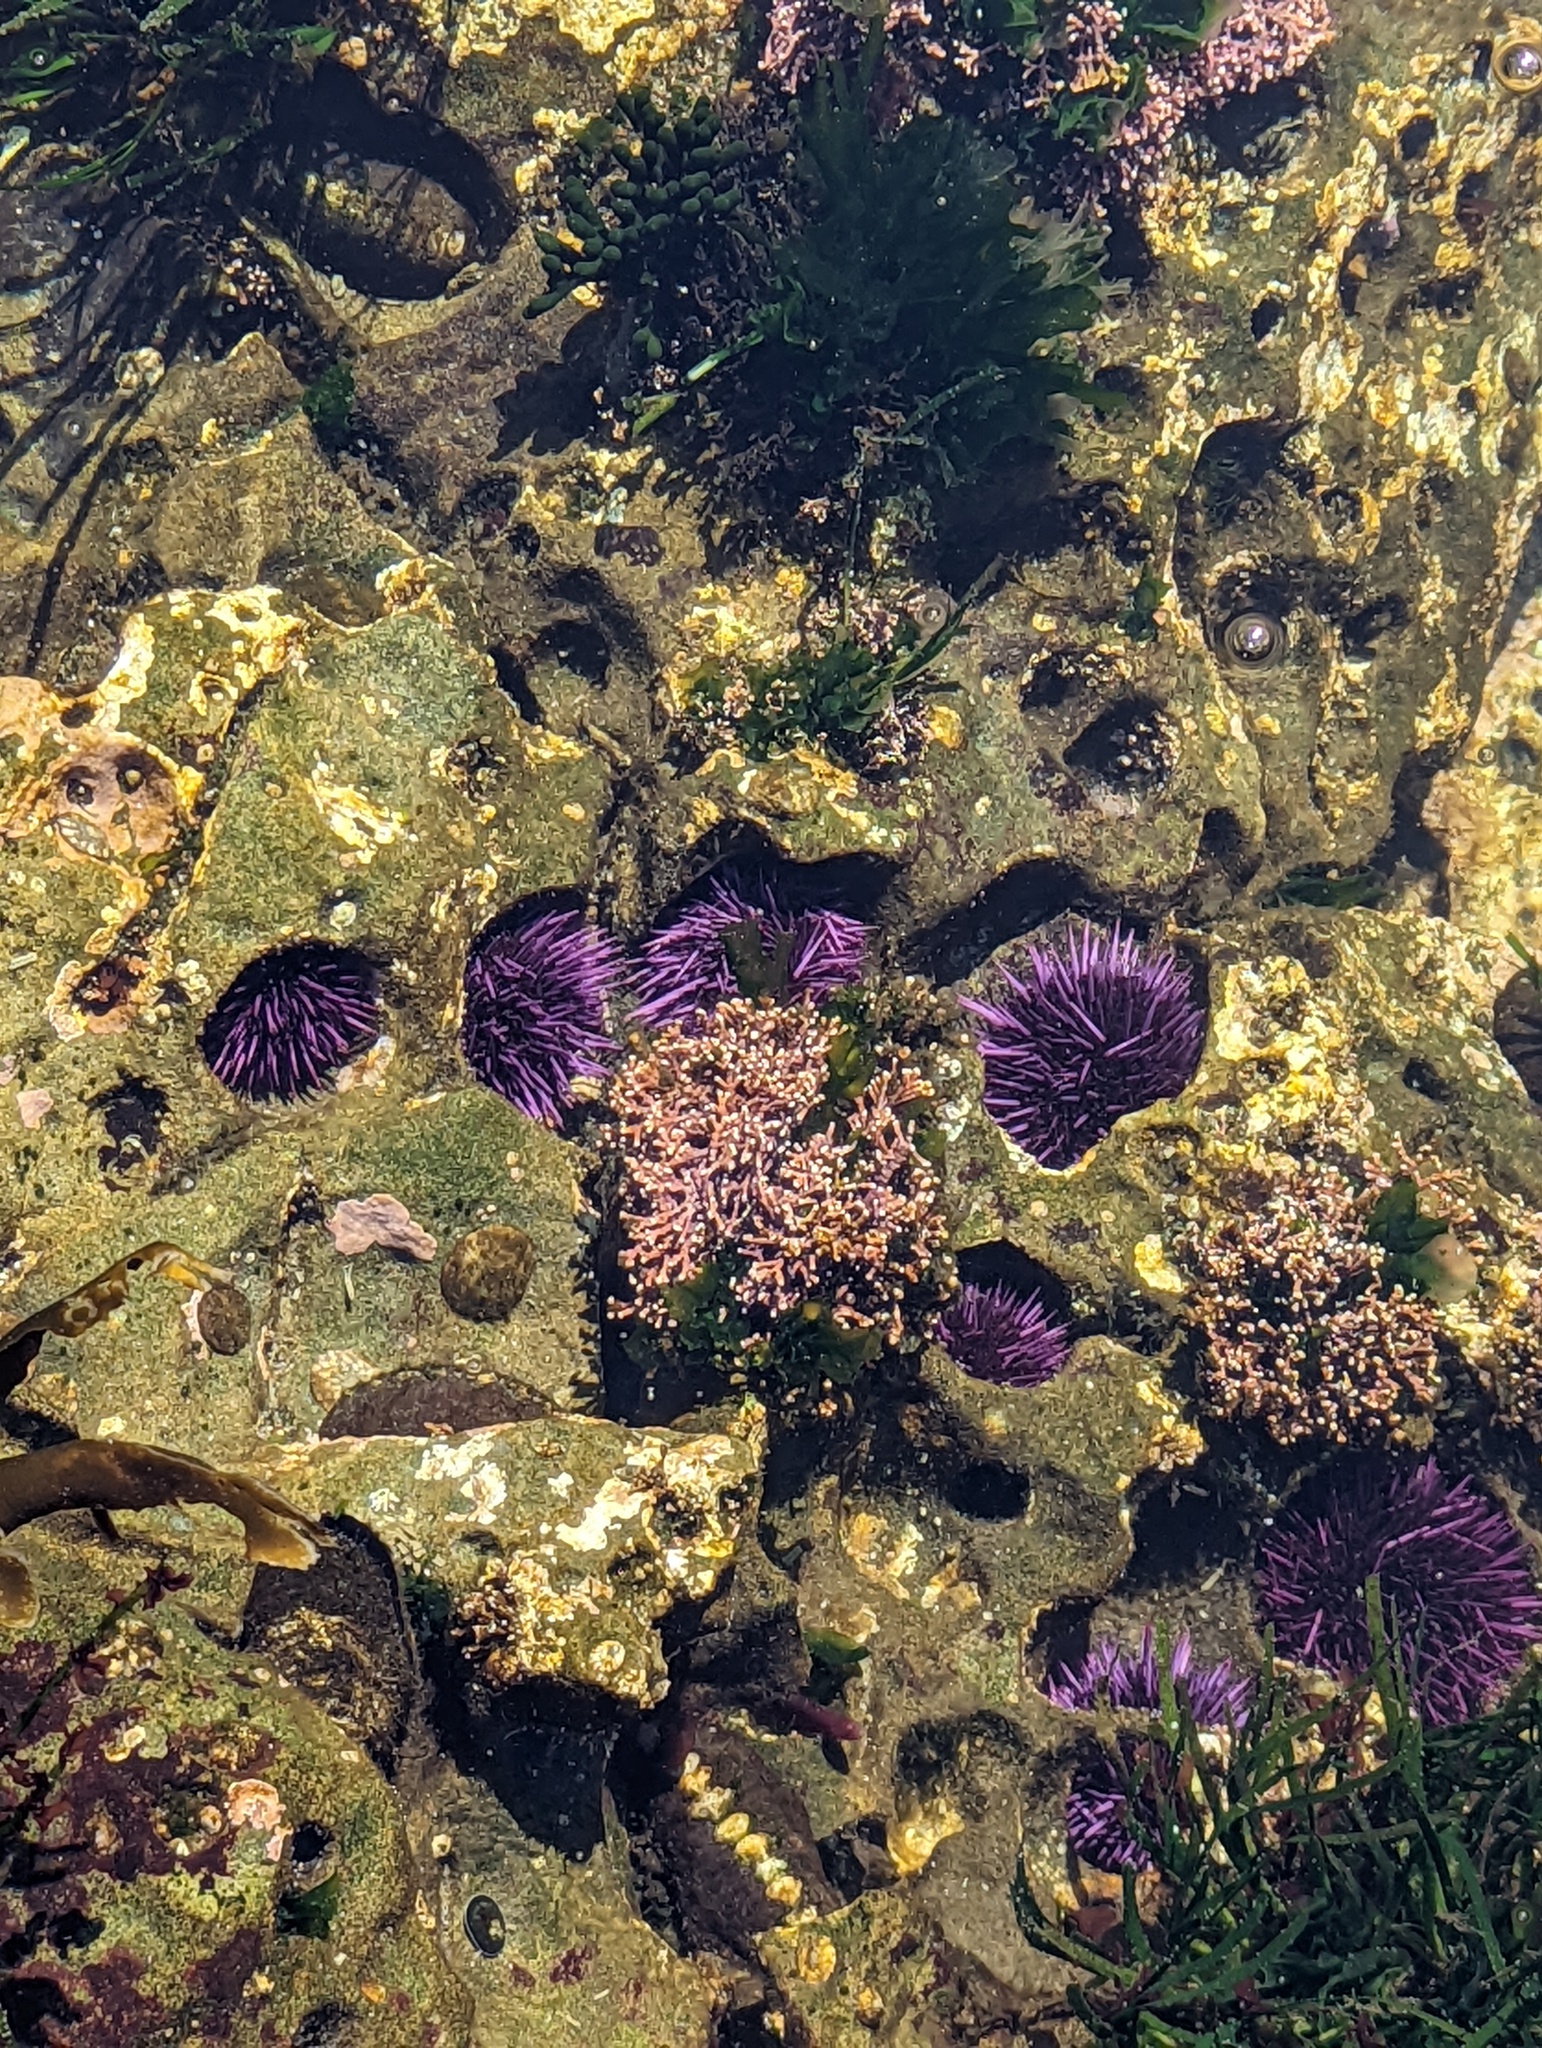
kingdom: Animalia
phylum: Echinodermata
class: Echinoidea
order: Camarodonta
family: Strongylocentrotidae
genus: Strongylocentrotus
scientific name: Strongylocentrotus purpuratus
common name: Purple sea urchin
